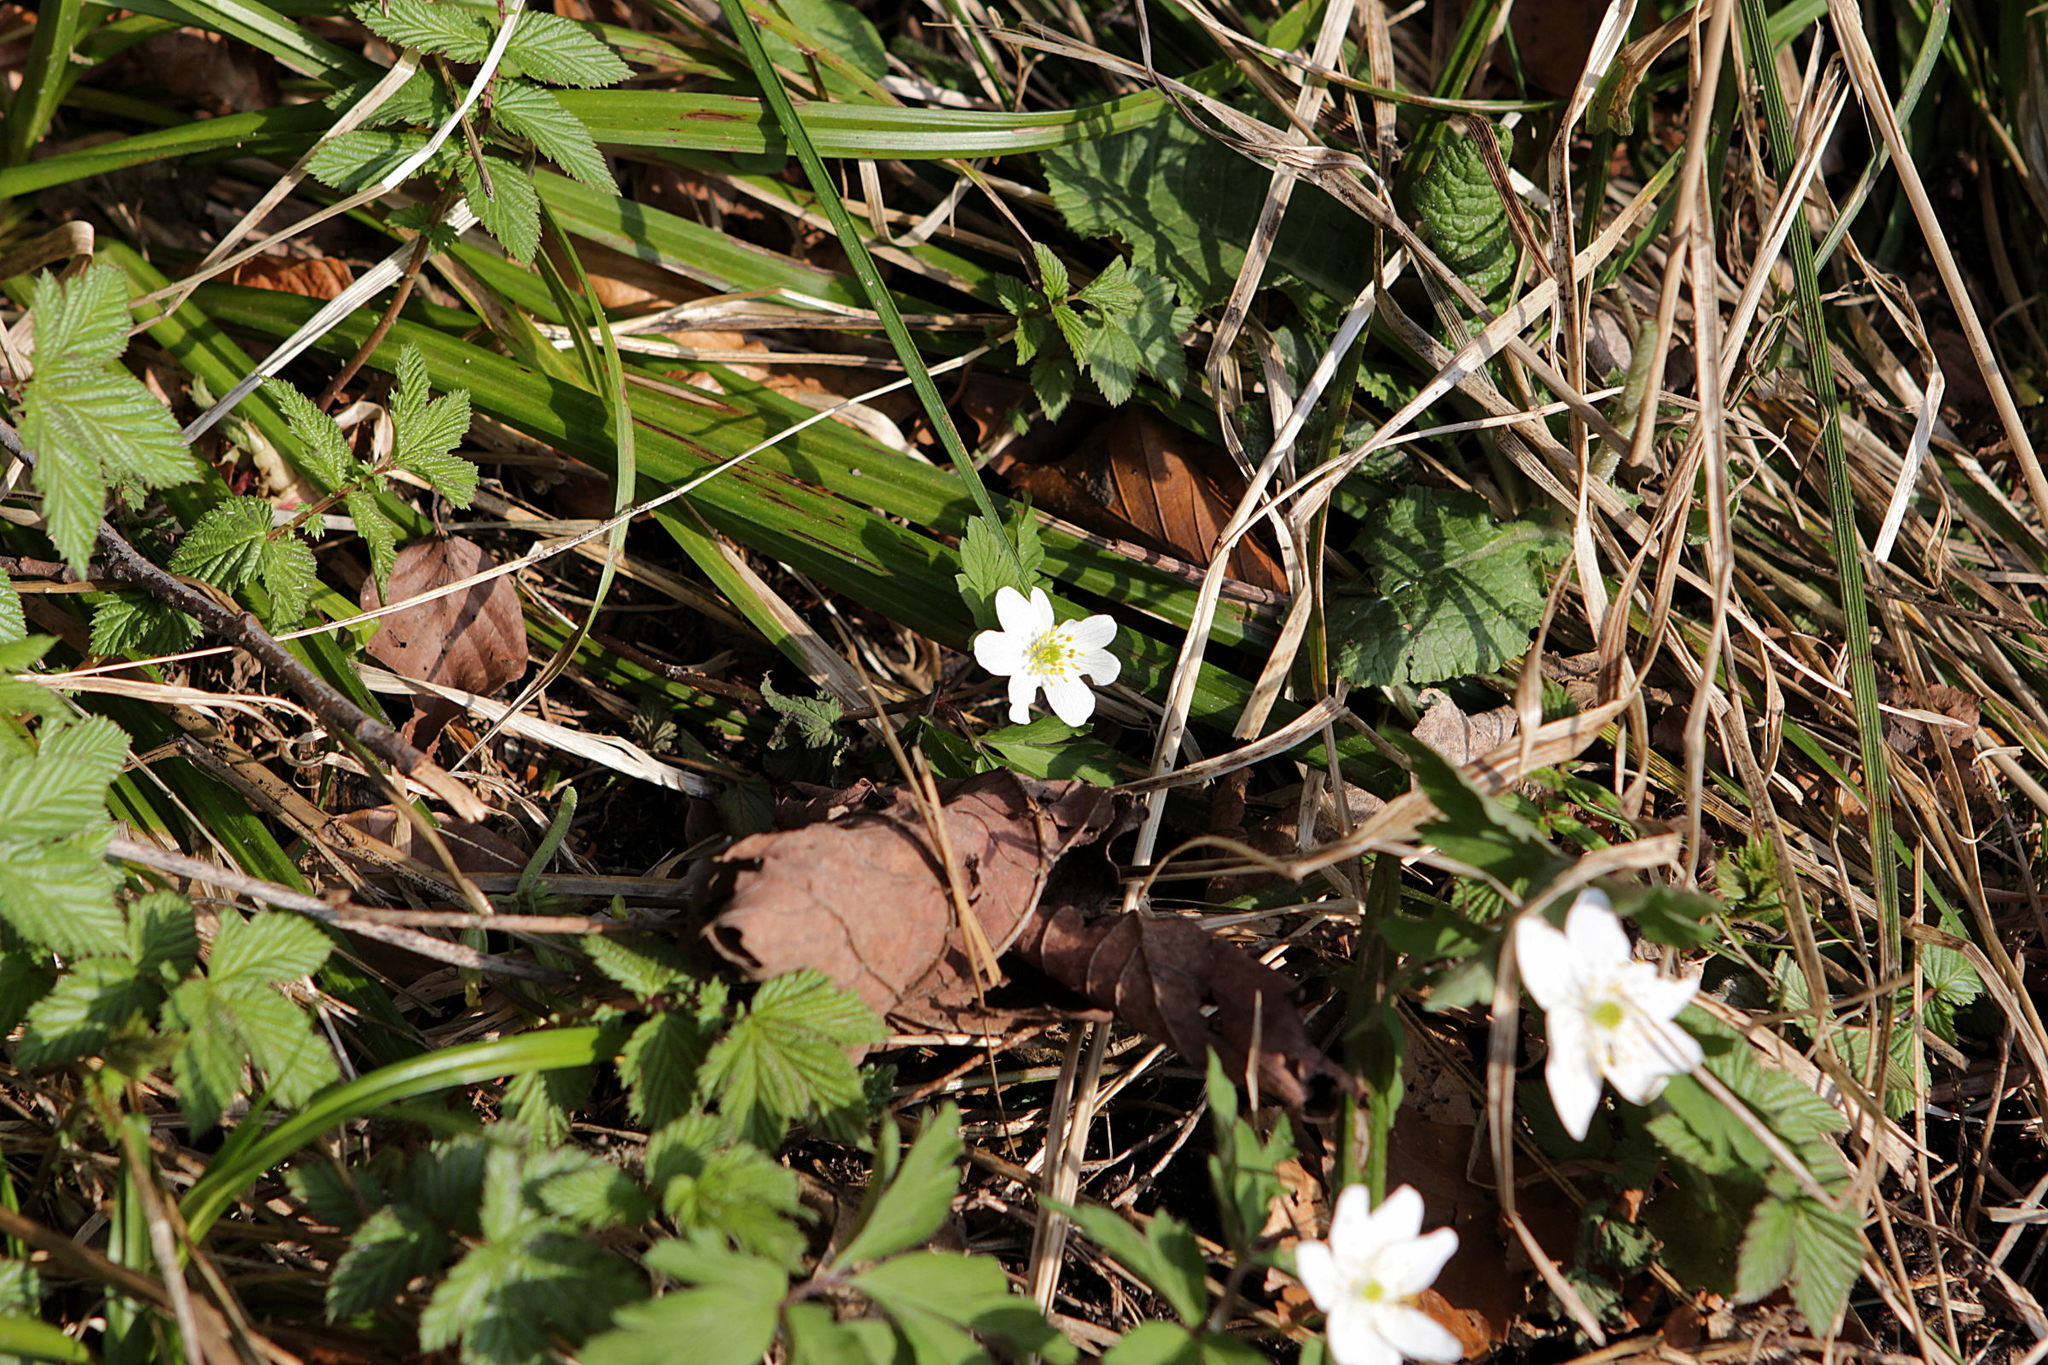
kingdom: Plantae
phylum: Tracheophyta
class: Magnoliopsida
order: Ranunculales
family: Ranunculaceae
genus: Anemone
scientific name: Anemone nemorosa
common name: Wood anemone
